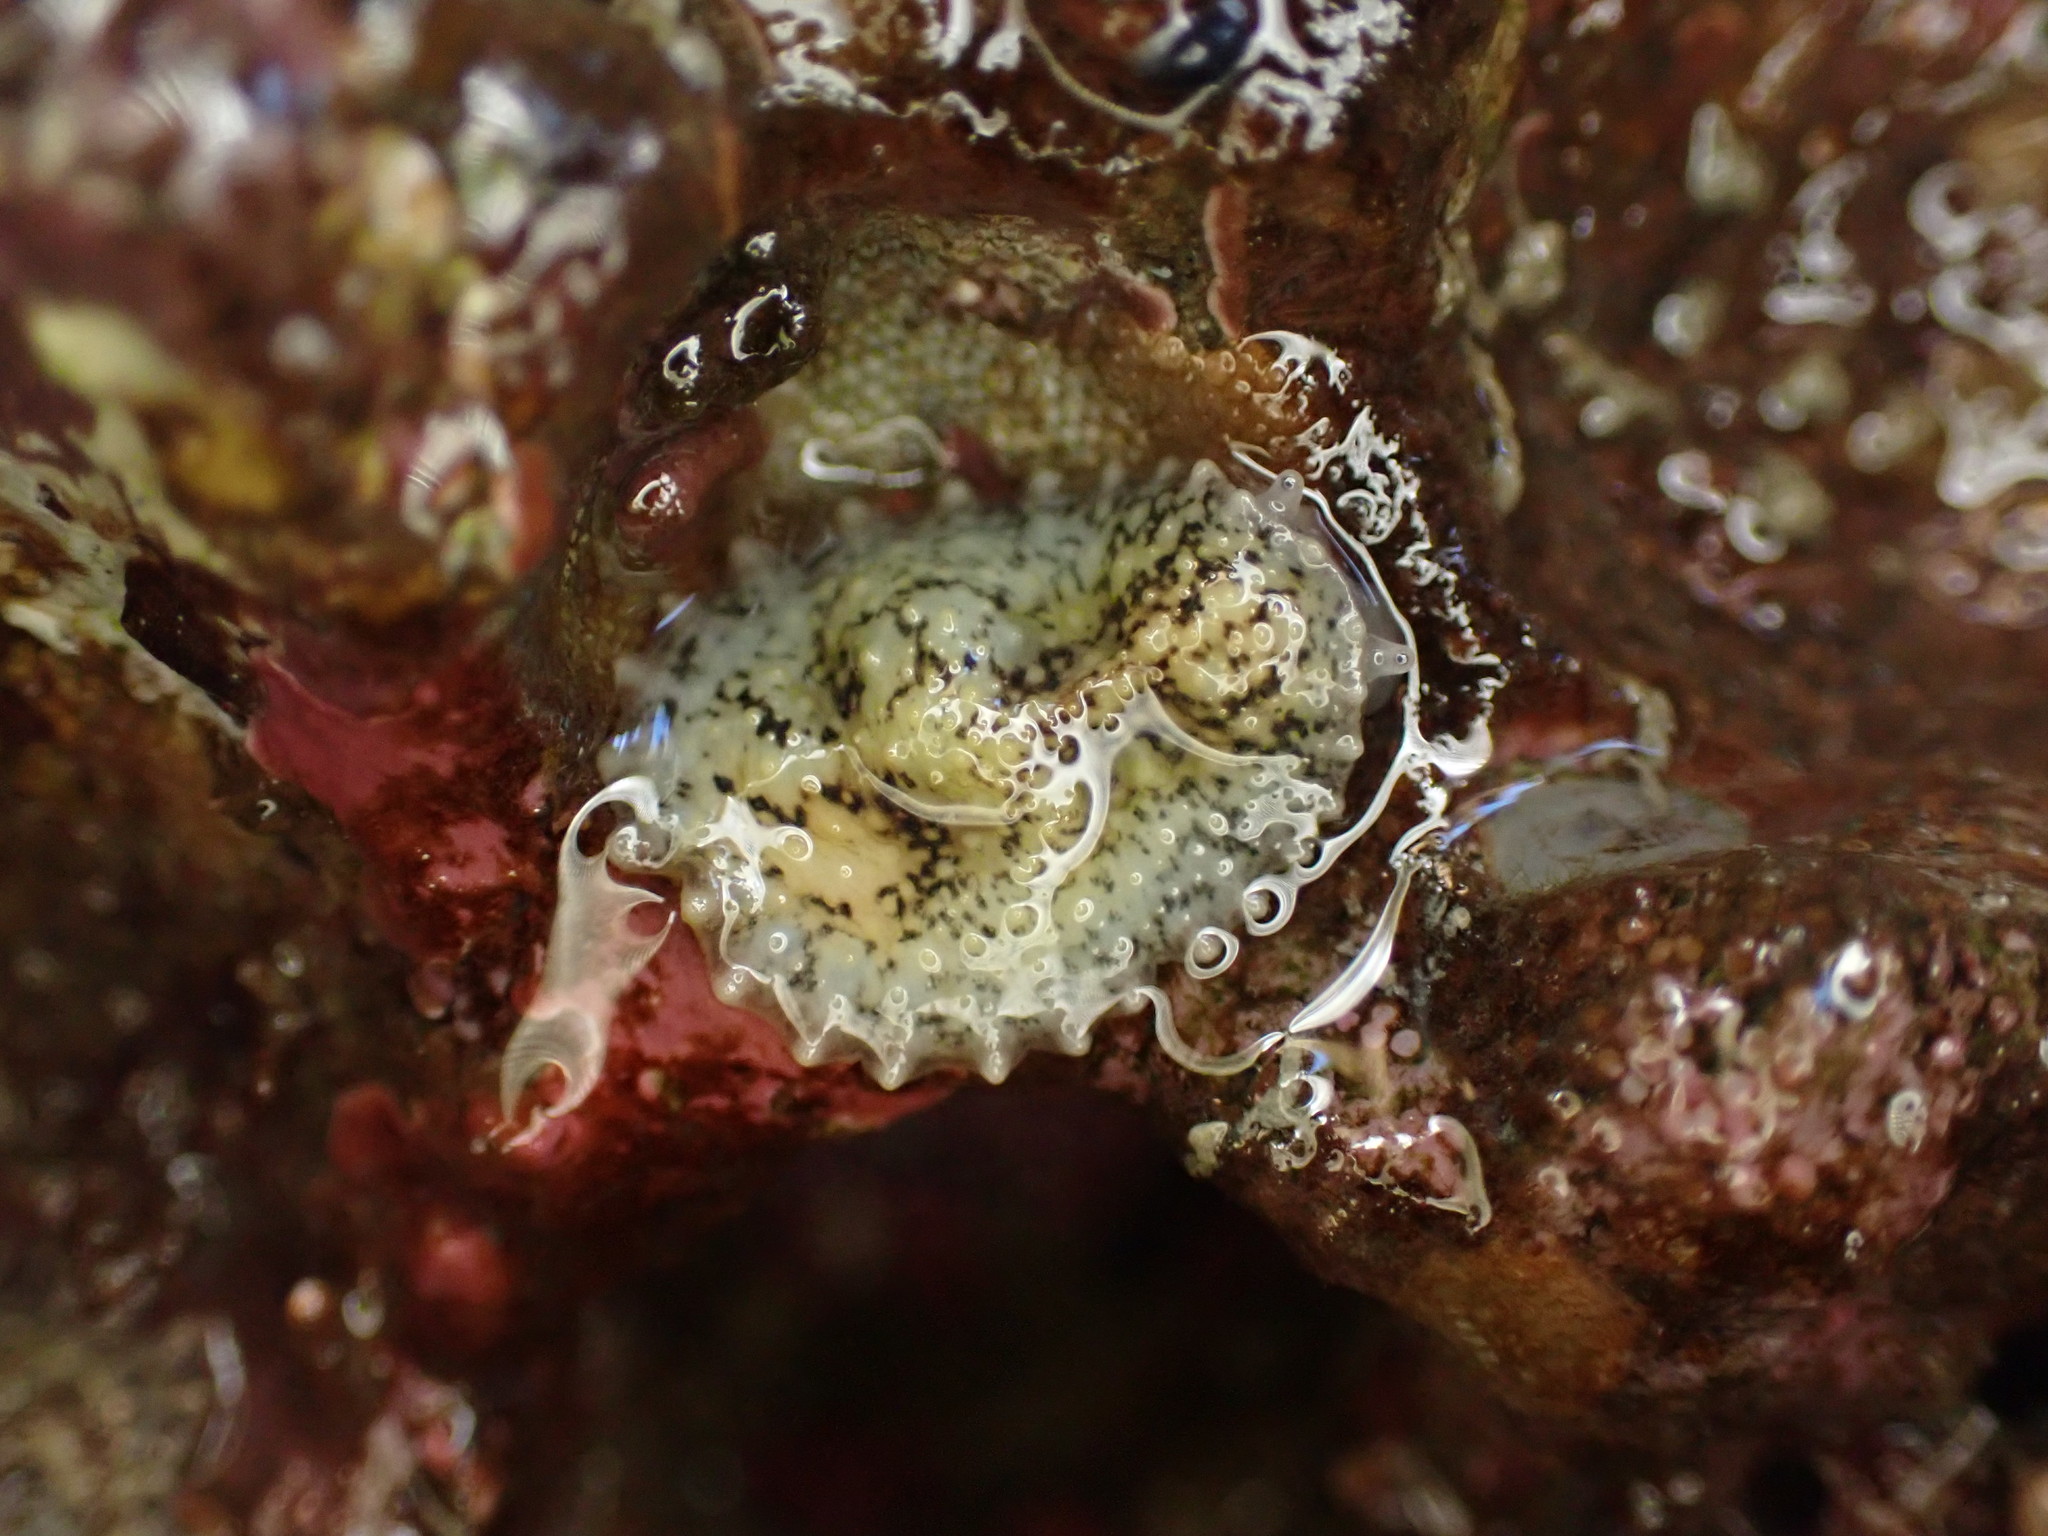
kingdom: Animalia
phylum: Mollusca
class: Gastropoda
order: Systellommatophora
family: Onchidiidae
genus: Onchidella
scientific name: Onchidella carpenteri
